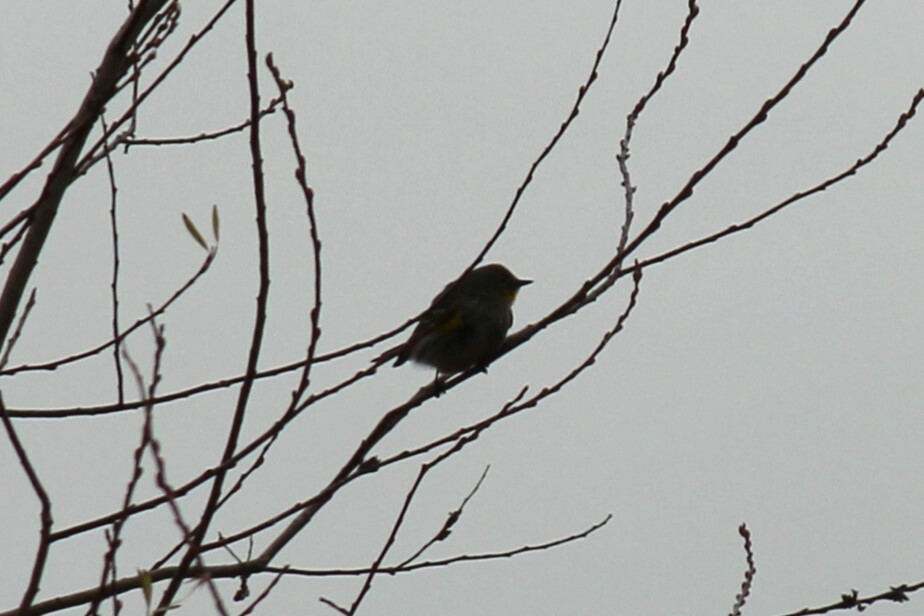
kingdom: Animalia
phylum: Chordata
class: Aves
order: Passeriformes
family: Parulidae
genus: Setophaga
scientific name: Setophaga coronata
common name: Myrtle warbler
